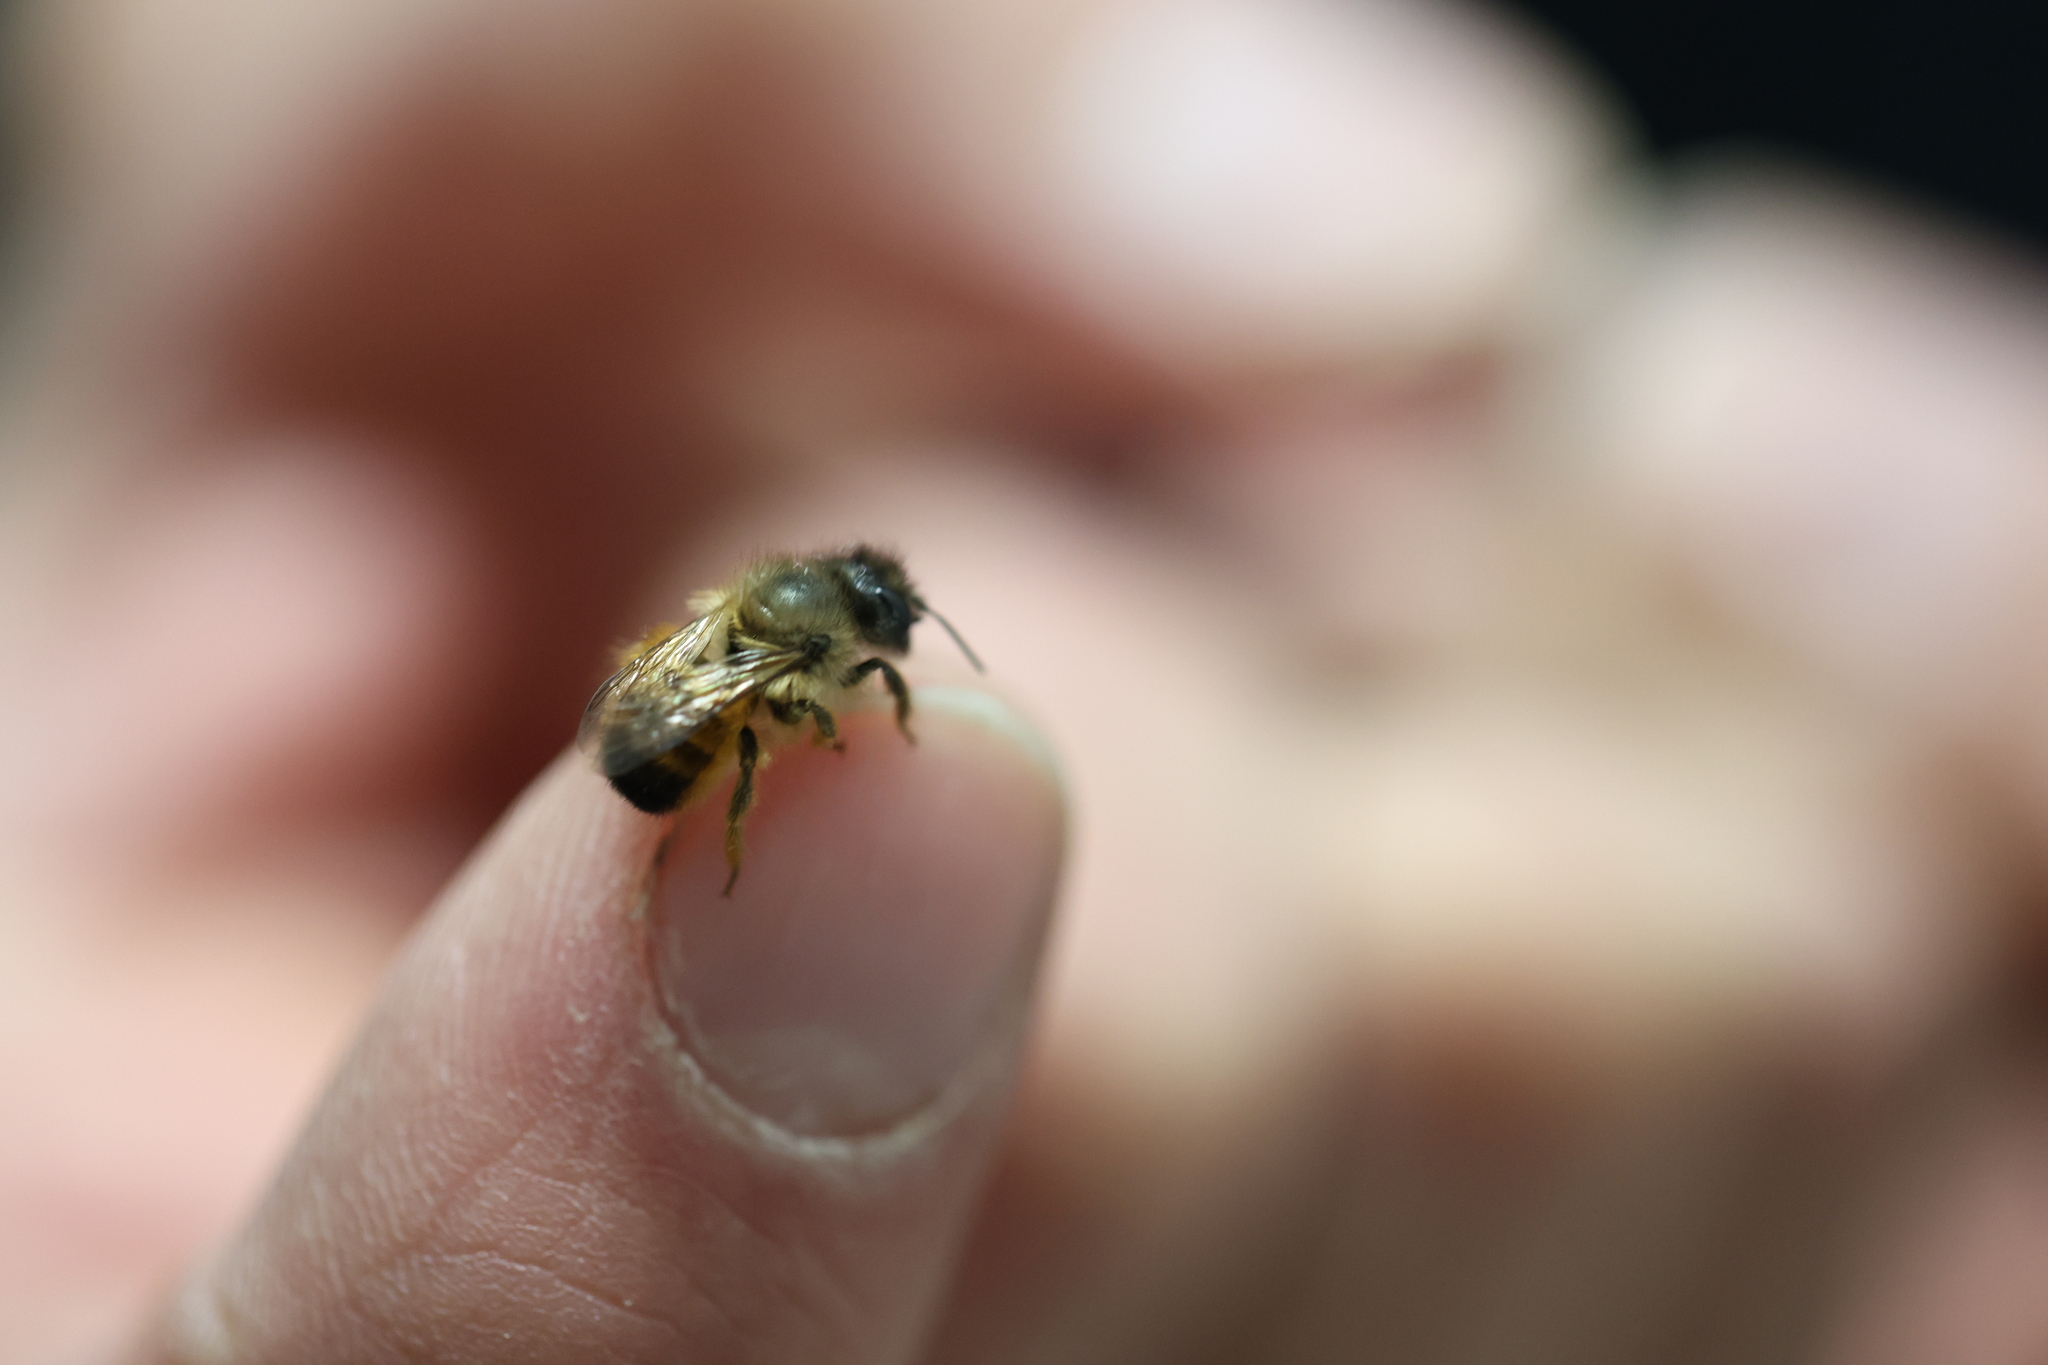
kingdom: Animalia
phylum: Arthropoda
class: Insecta
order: Hymenoptera
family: Megachilidae
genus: Osmia
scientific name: Osmia bicornis
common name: Red mason bee
